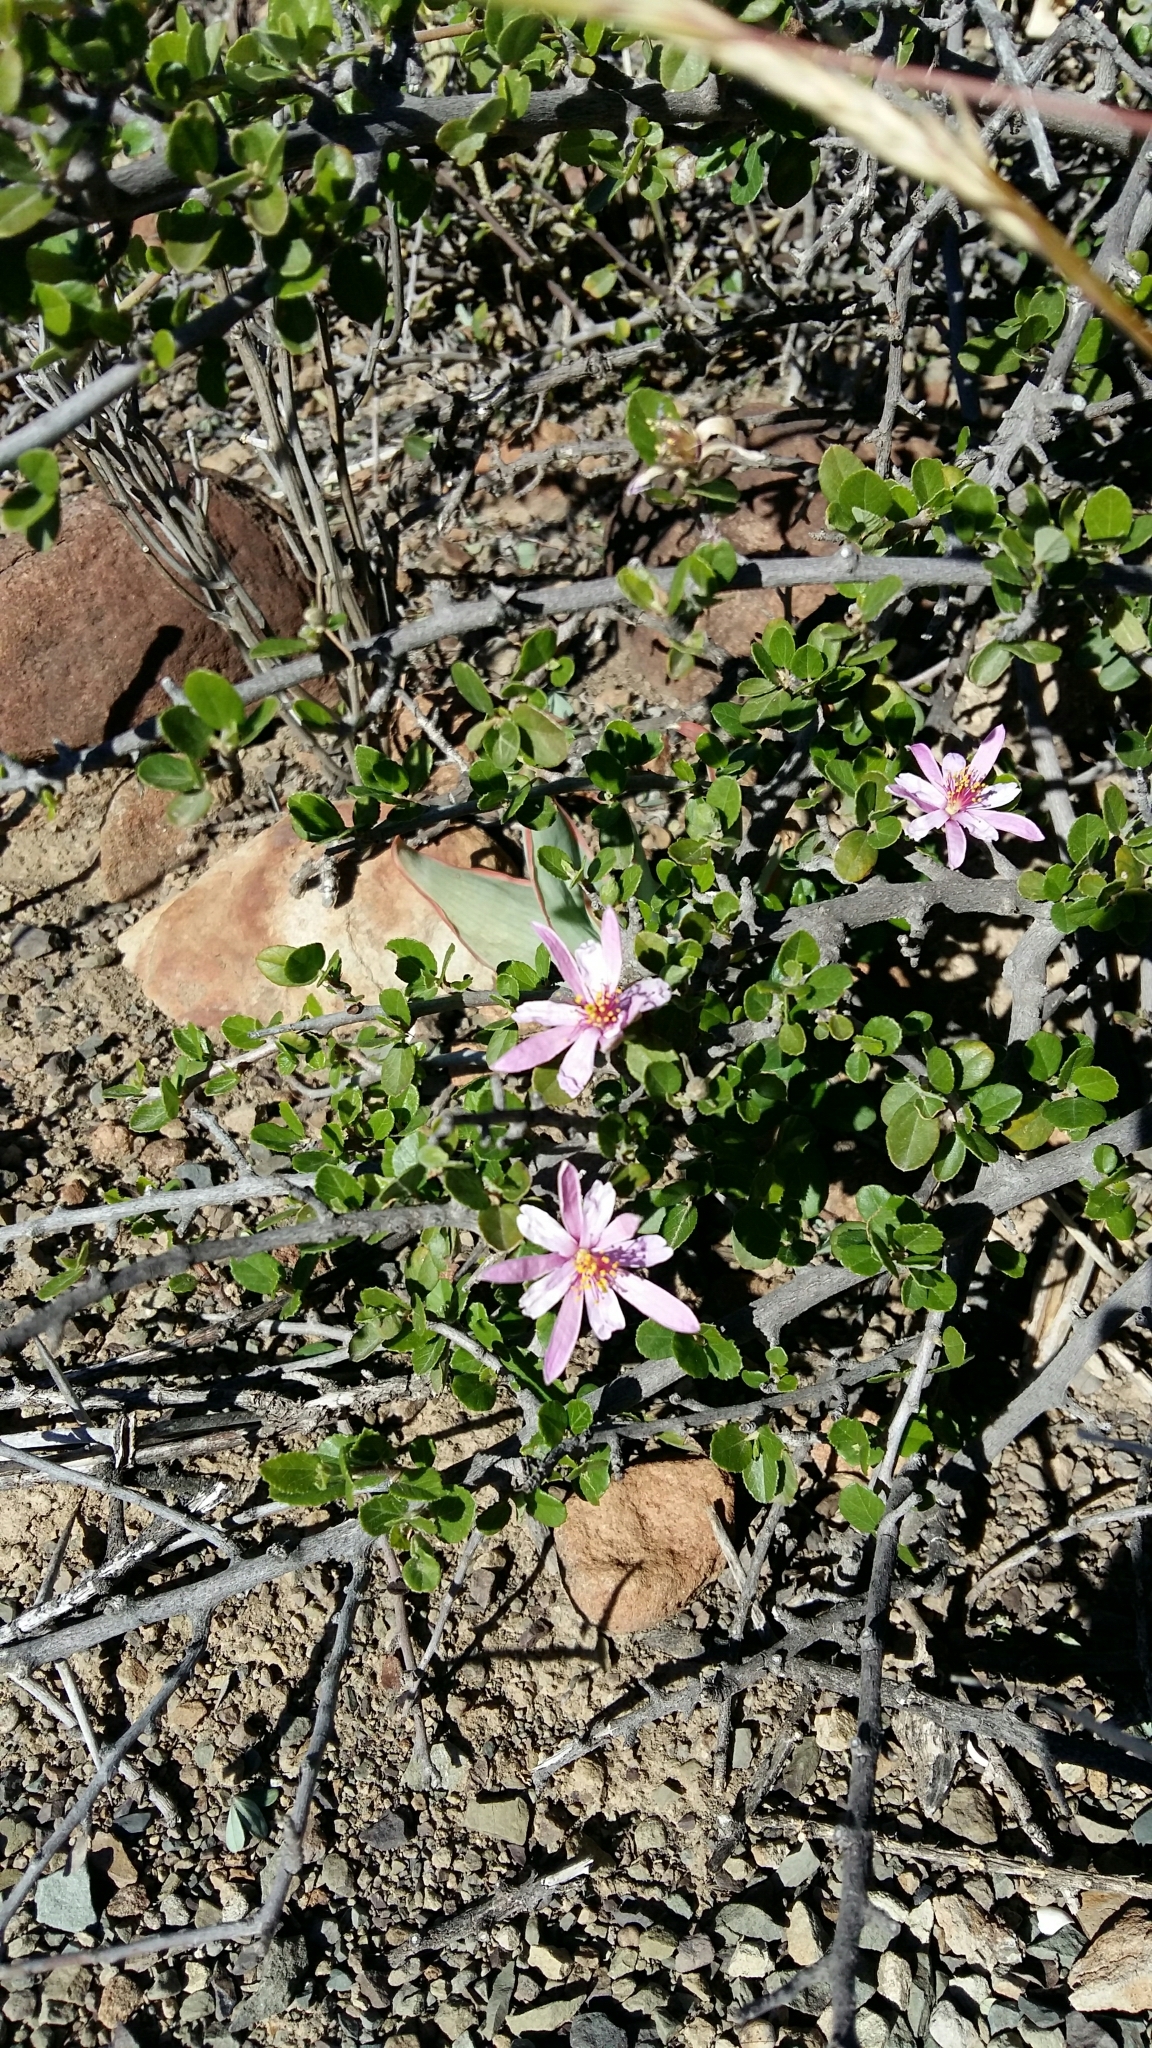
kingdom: Plantae
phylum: Tracheophyta
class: Magnoliopsida
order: Malvales
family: Malvaceae
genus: Grewia
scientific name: Grewia robusta
